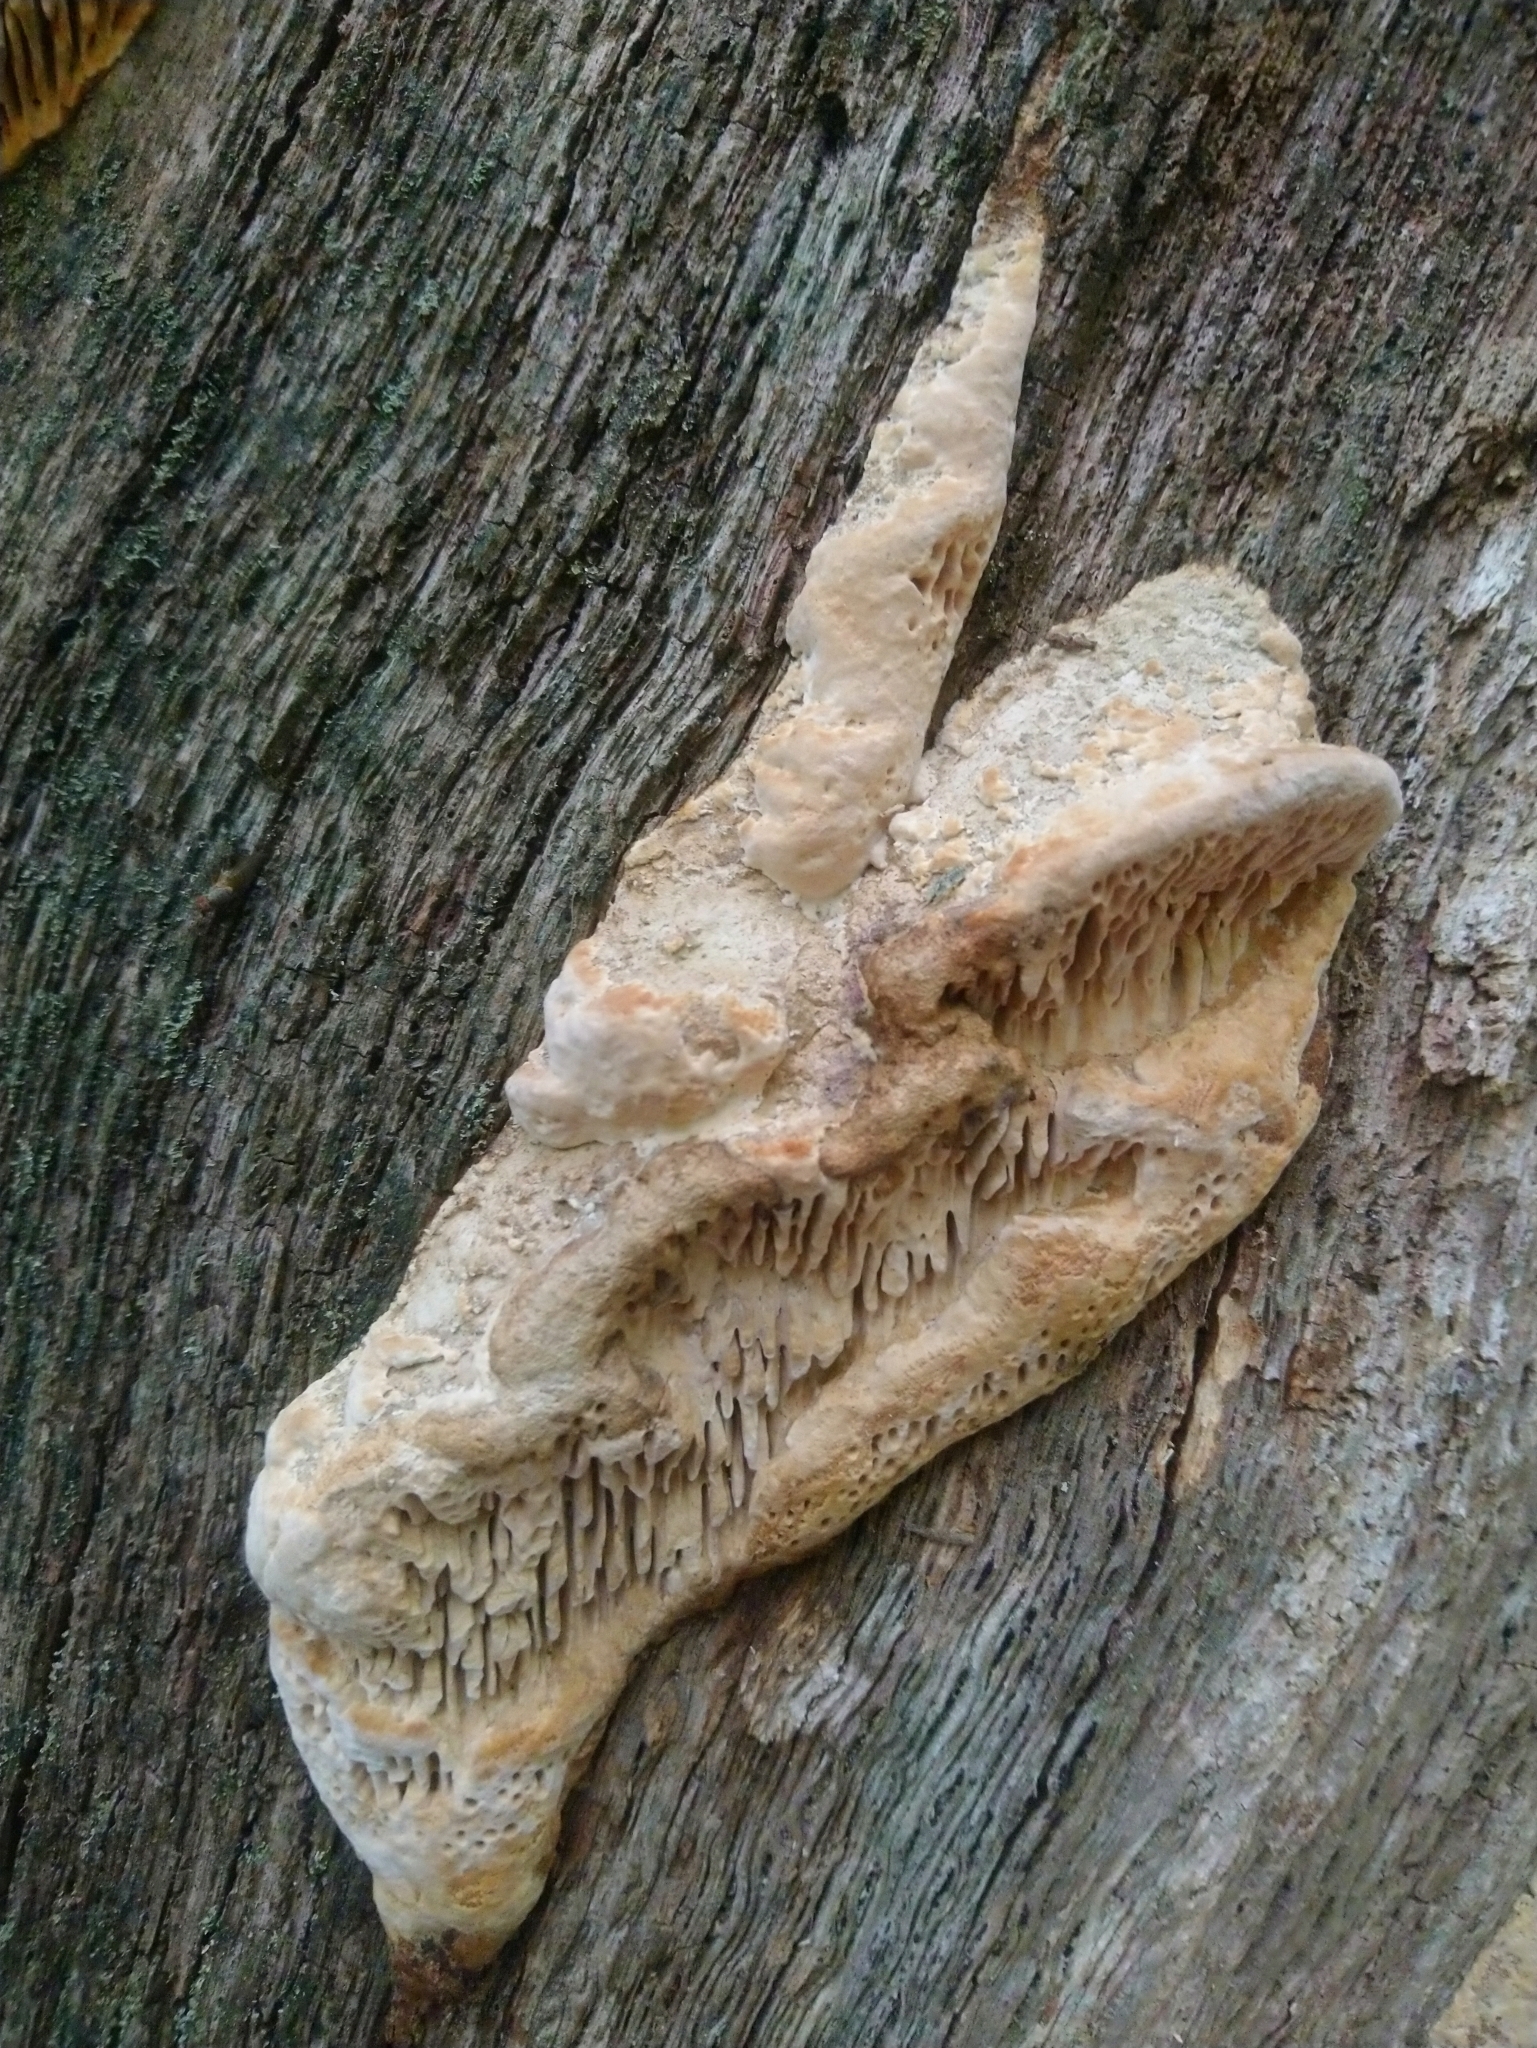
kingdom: Fungi
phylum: Basidiomycota
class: Agaricomycetes
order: Polyporales
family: Fomitopsidaceae
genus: Fomitopsis
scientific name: Fomitopsis
